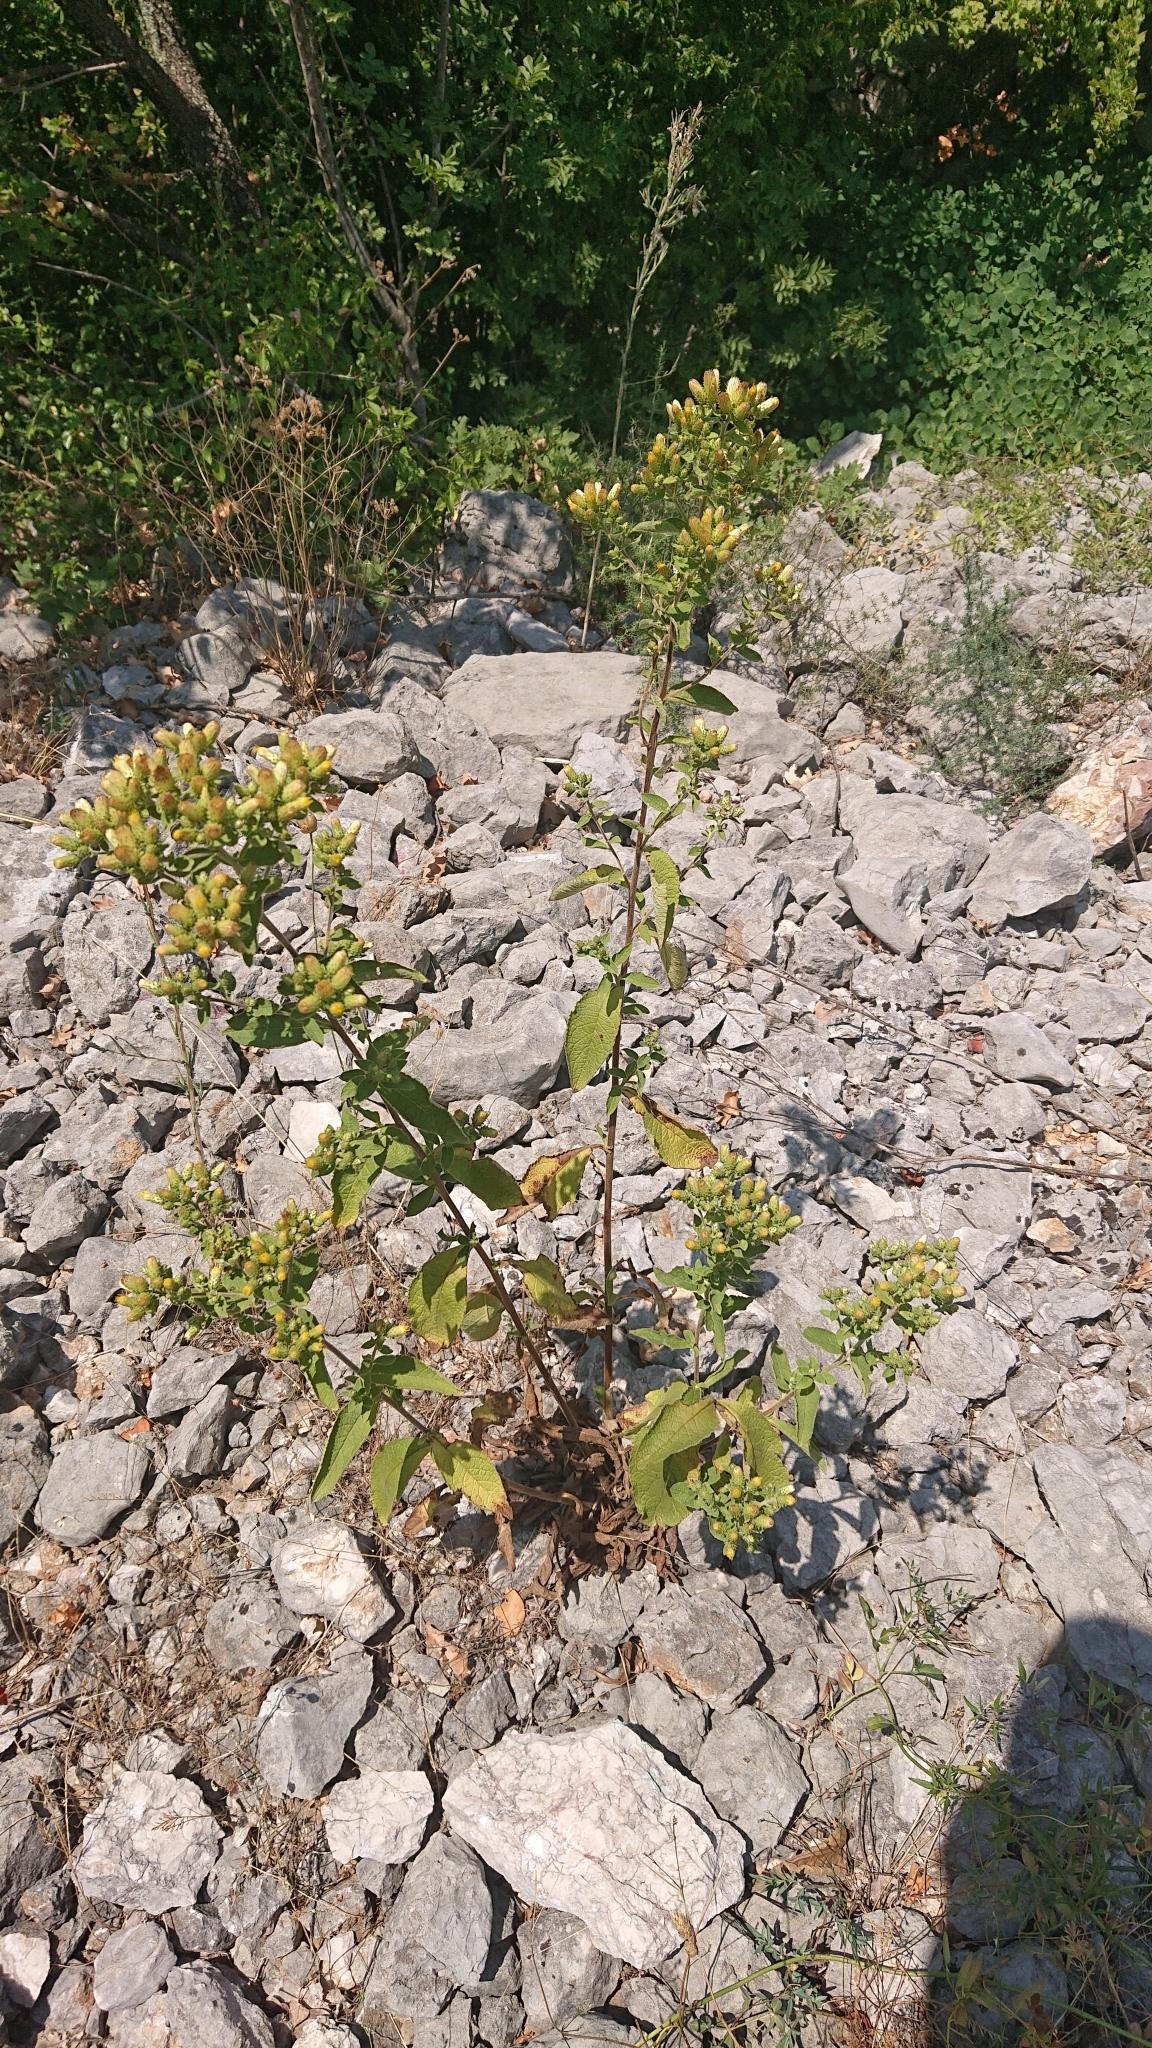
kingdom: Plantae
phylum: Tracheophyta
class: Magnoliopsida
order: Asterales
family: Asteraceae
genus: Pentanema
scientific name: Pentanema squarrosum
